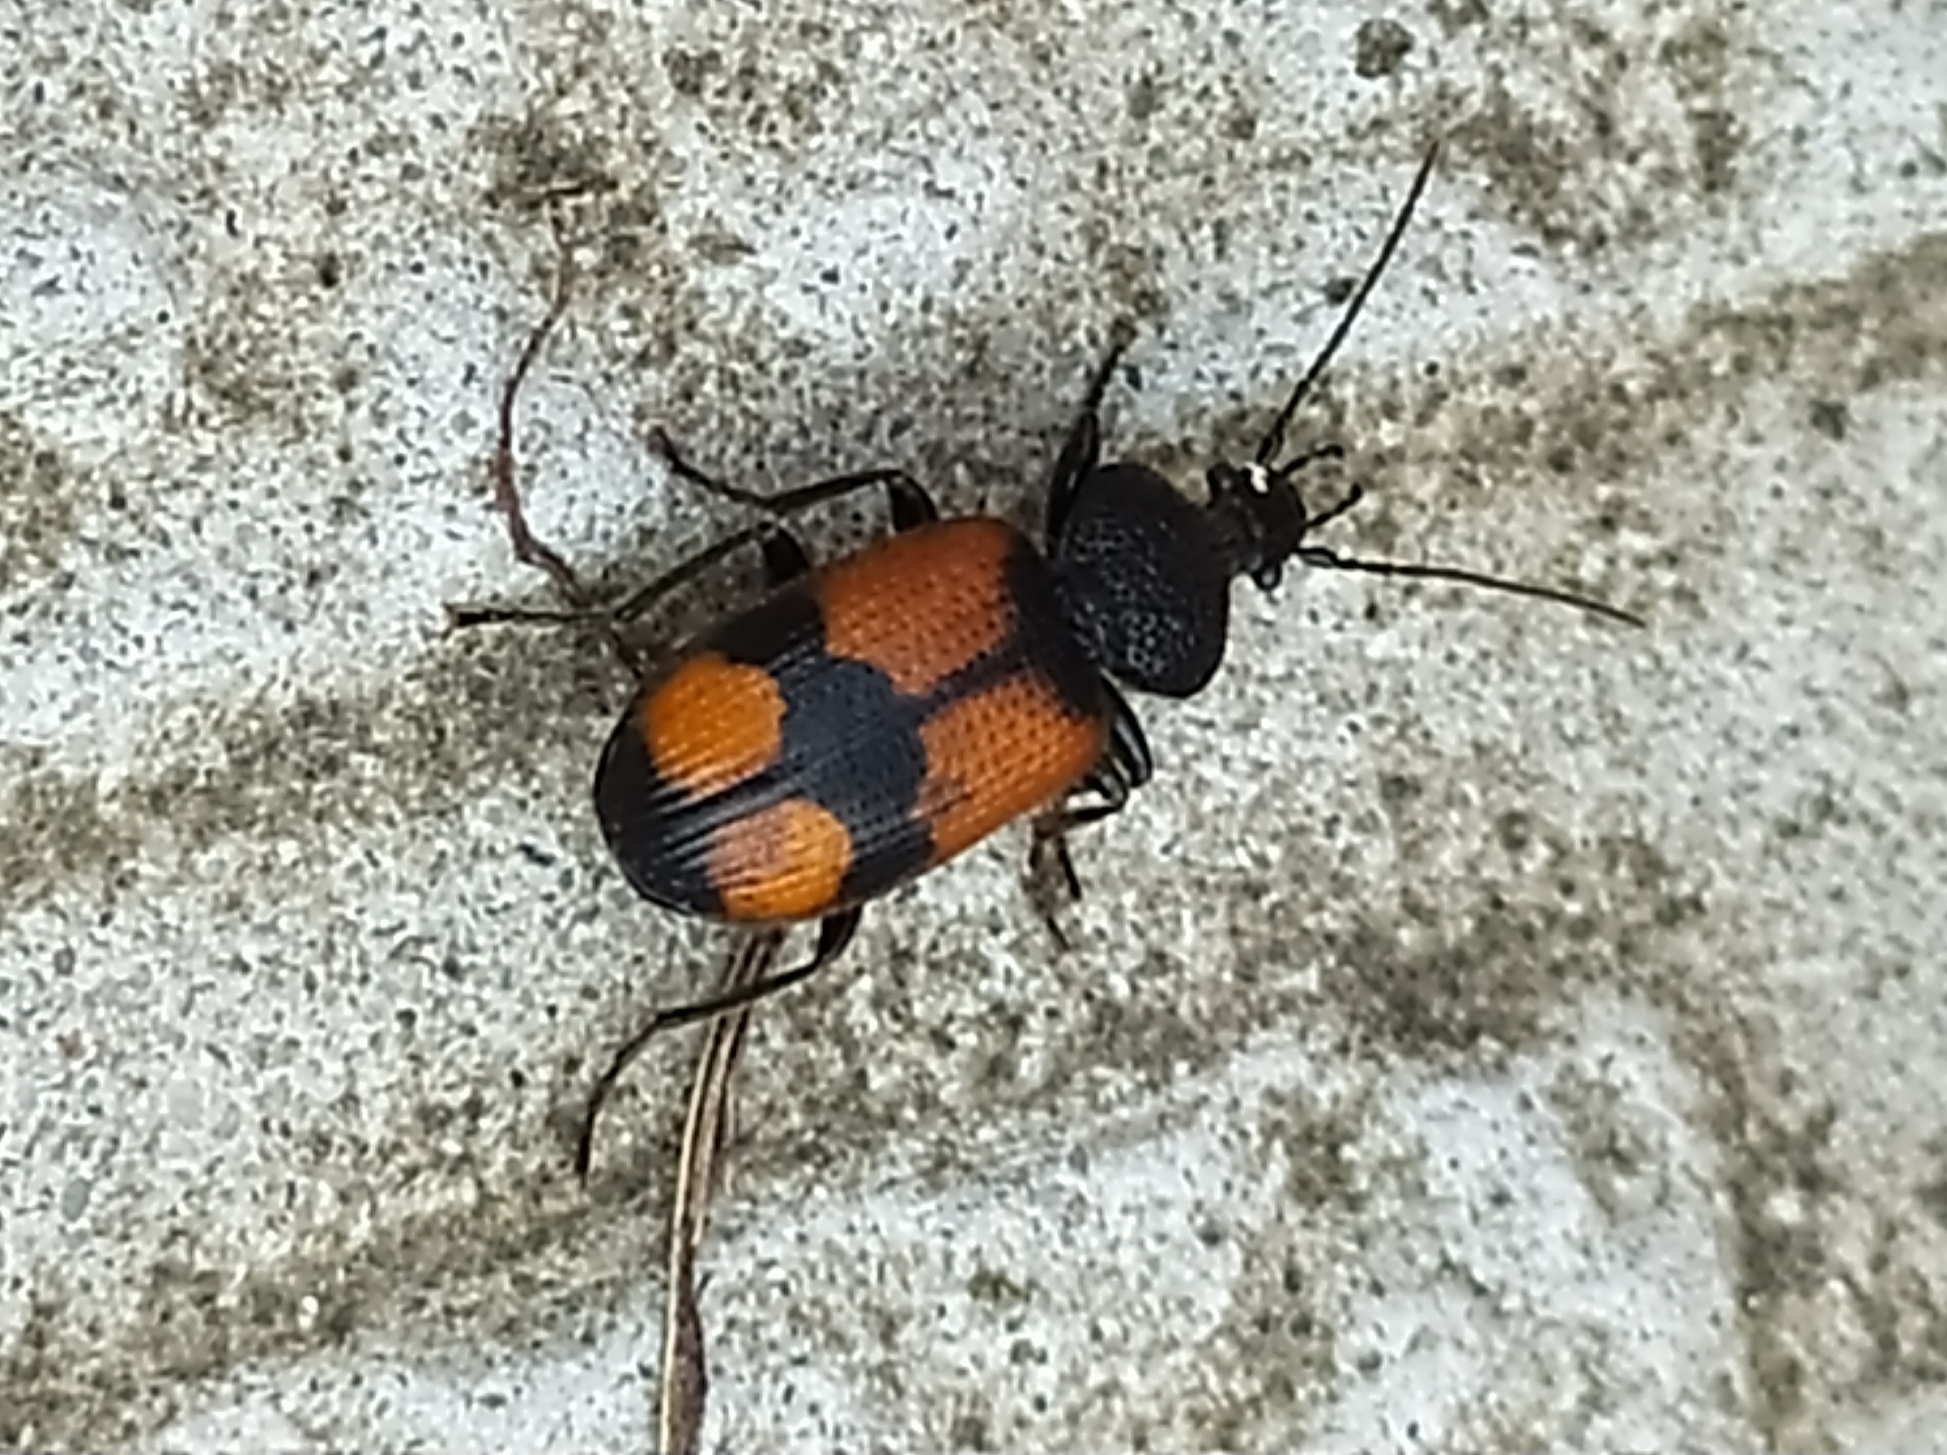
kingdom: Animalia
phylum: Arthropoda
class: Insecta
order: Coleoptera
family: Carabidae
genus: Panagaeus
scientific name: Panagaeus cruxmajor
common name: Crucifix ground beetle
